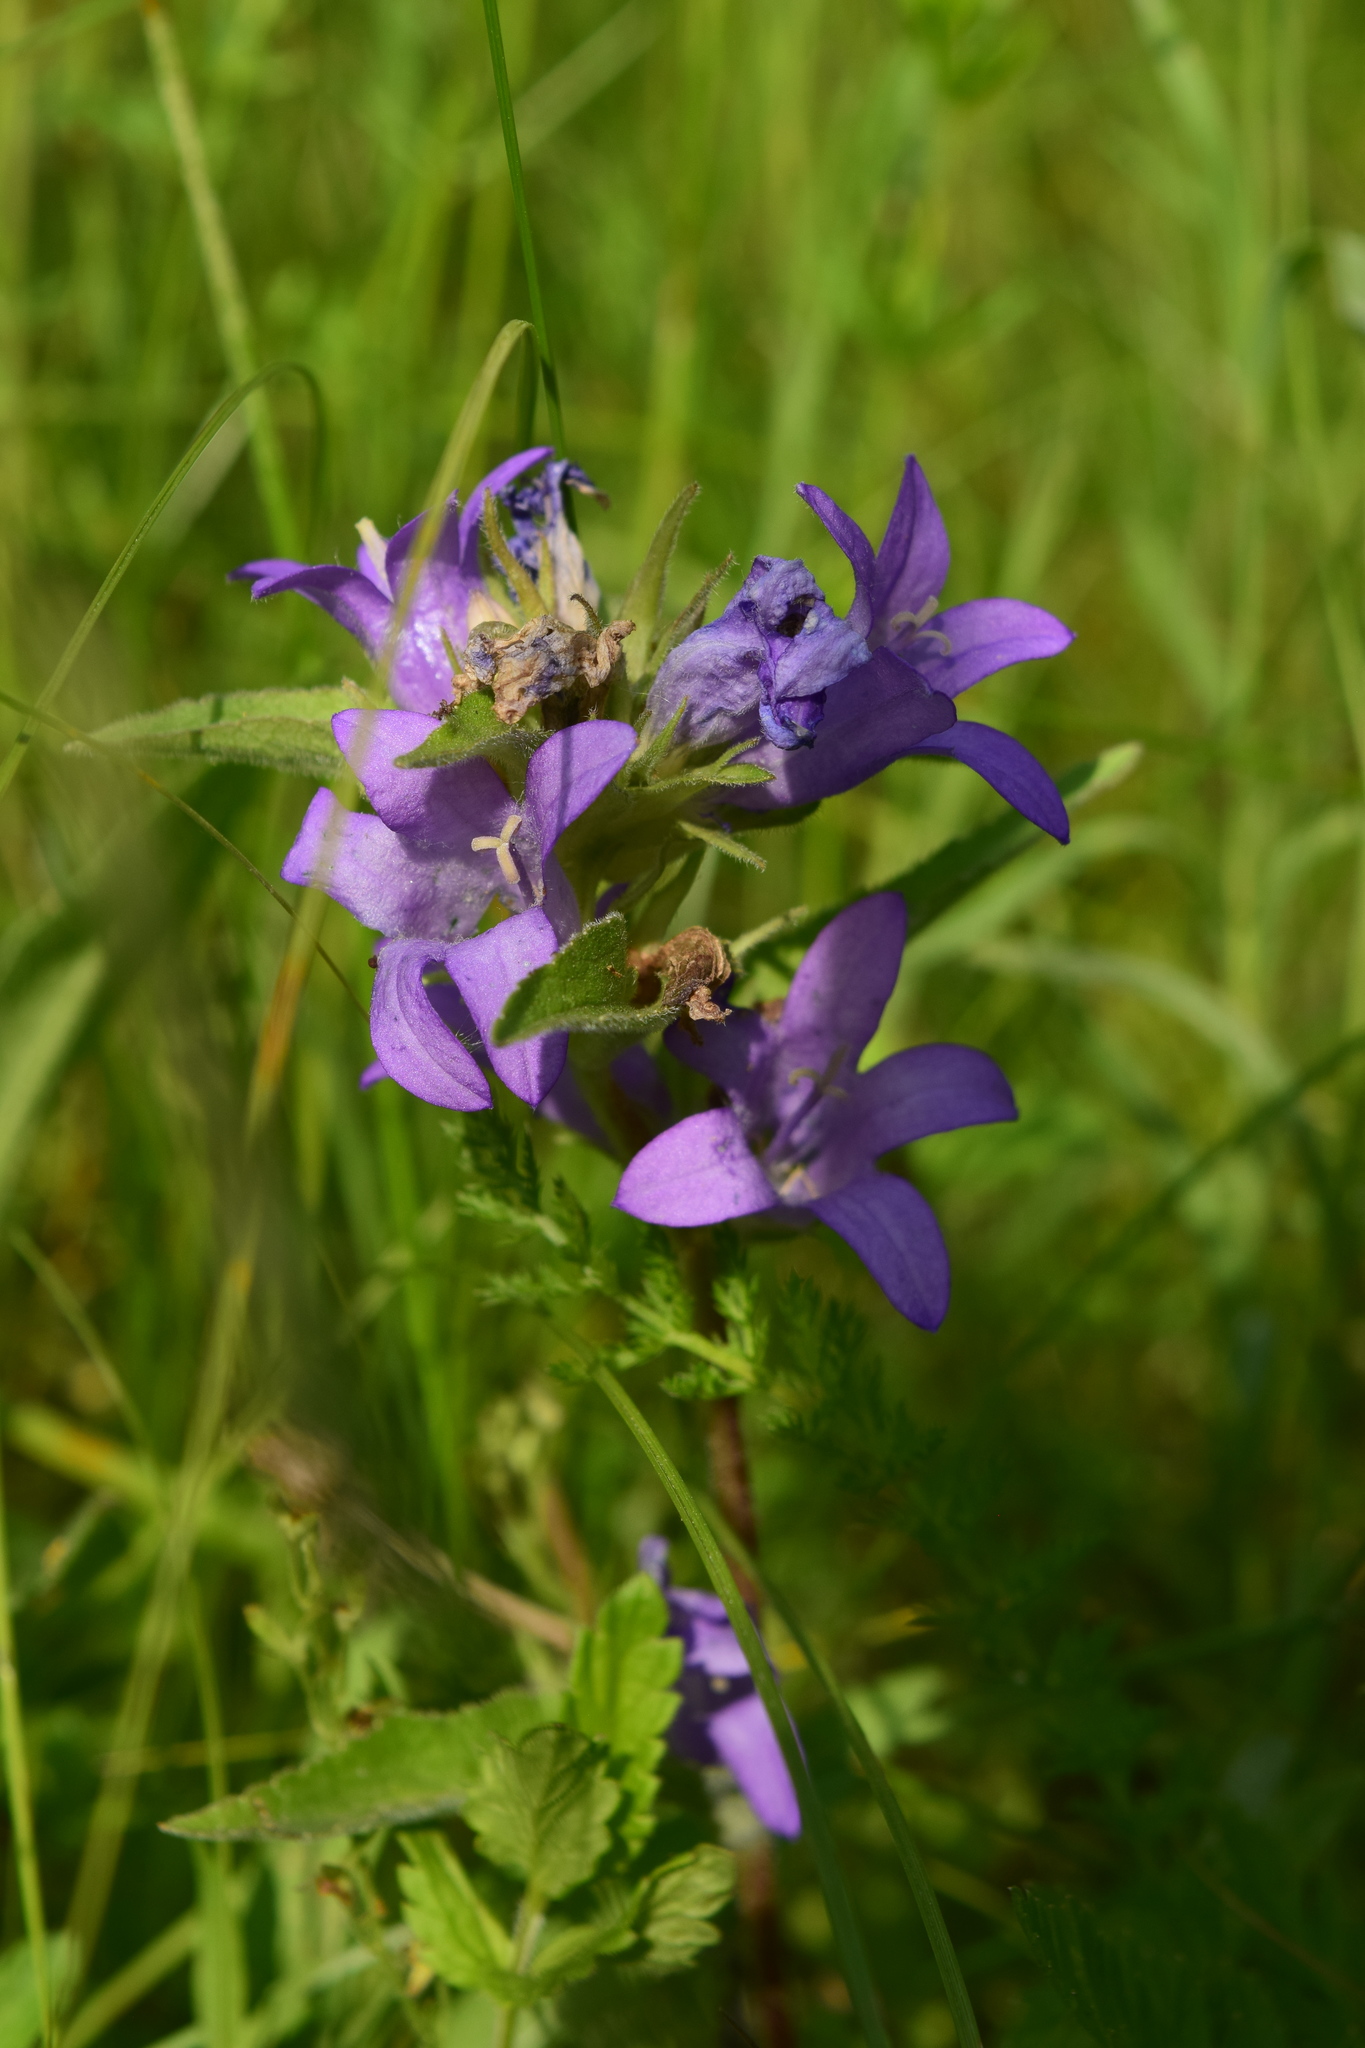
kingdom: Plantae
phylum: Tracheophyta
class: Magnoliopsida
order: Asterales
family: Campanulaceae
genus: Campanula
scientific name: Campanula glomerata
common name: Clustered bellflower
